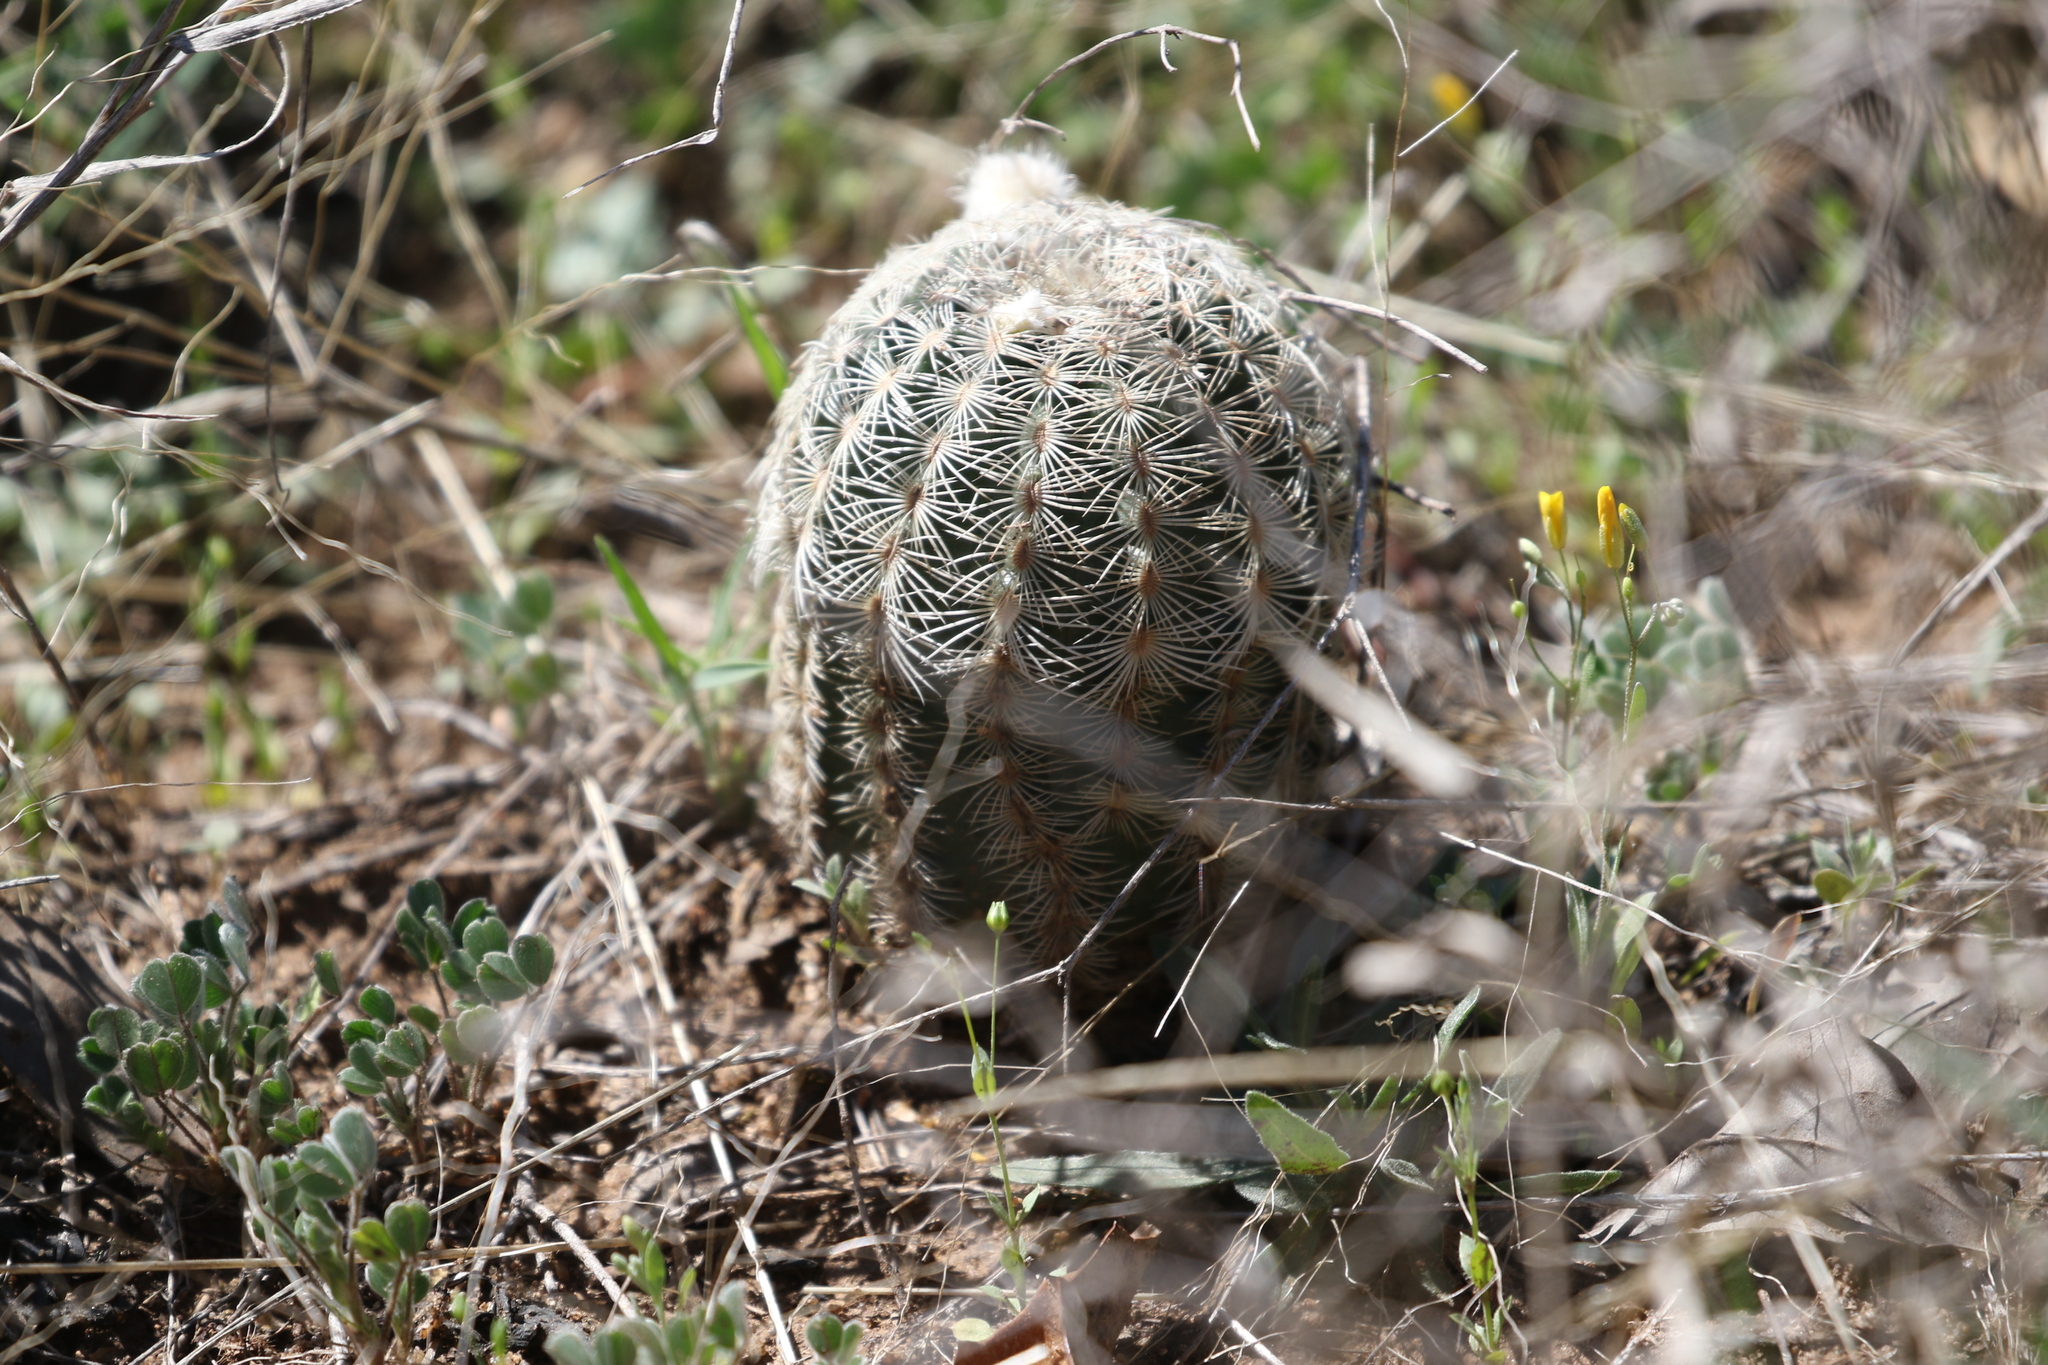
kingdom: Plantae
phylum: Tracheophyta
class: Magnoliopsida
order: Caryophyllales
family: Cactaceae
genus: Echinocereus
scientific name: Echinocereus reichenbachii
